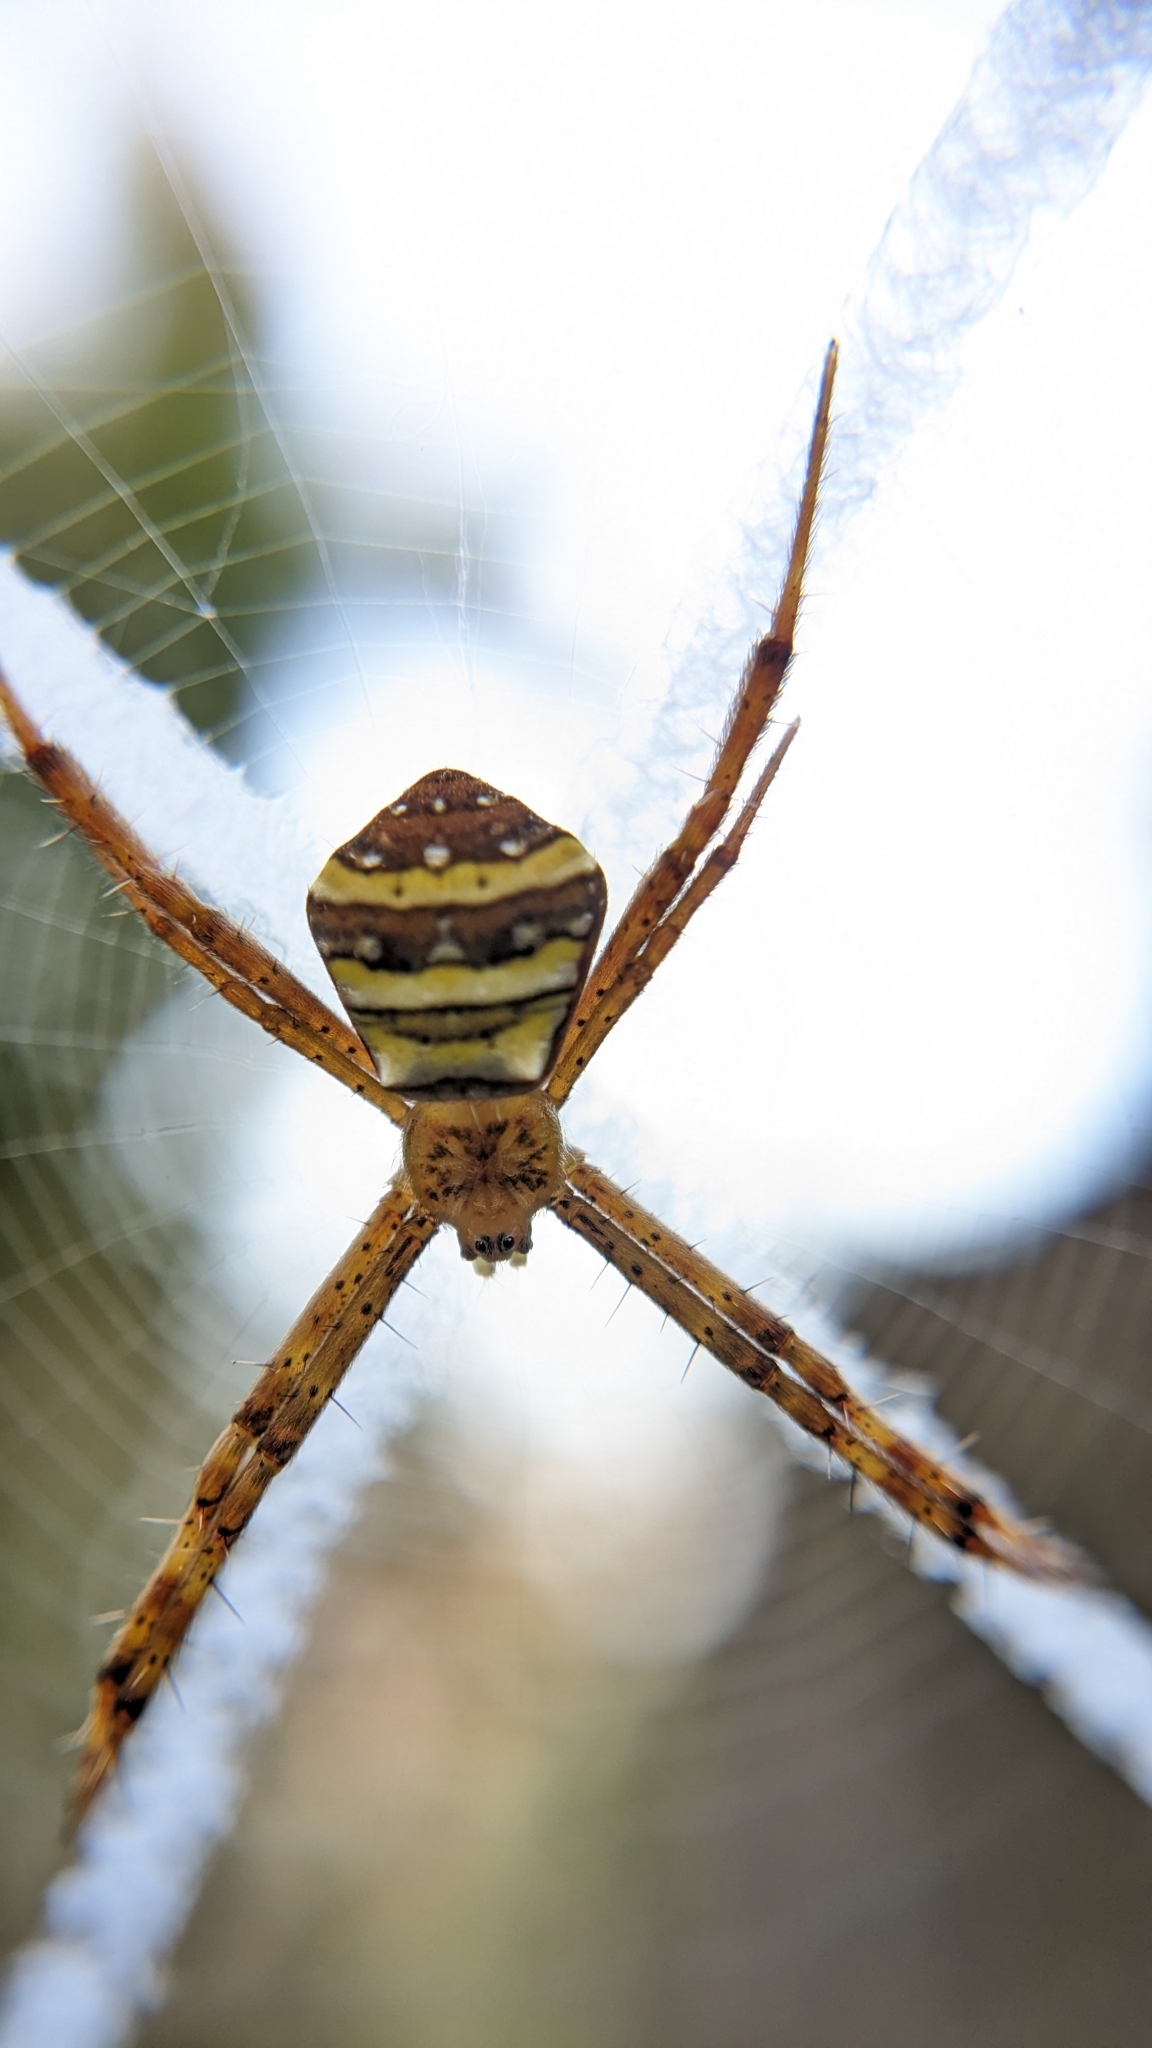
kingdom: Animalia
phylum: Arthropoda
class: Arachnida
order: Araneae
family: Araneidae
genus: Argiope
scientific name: Argiope pulchella
